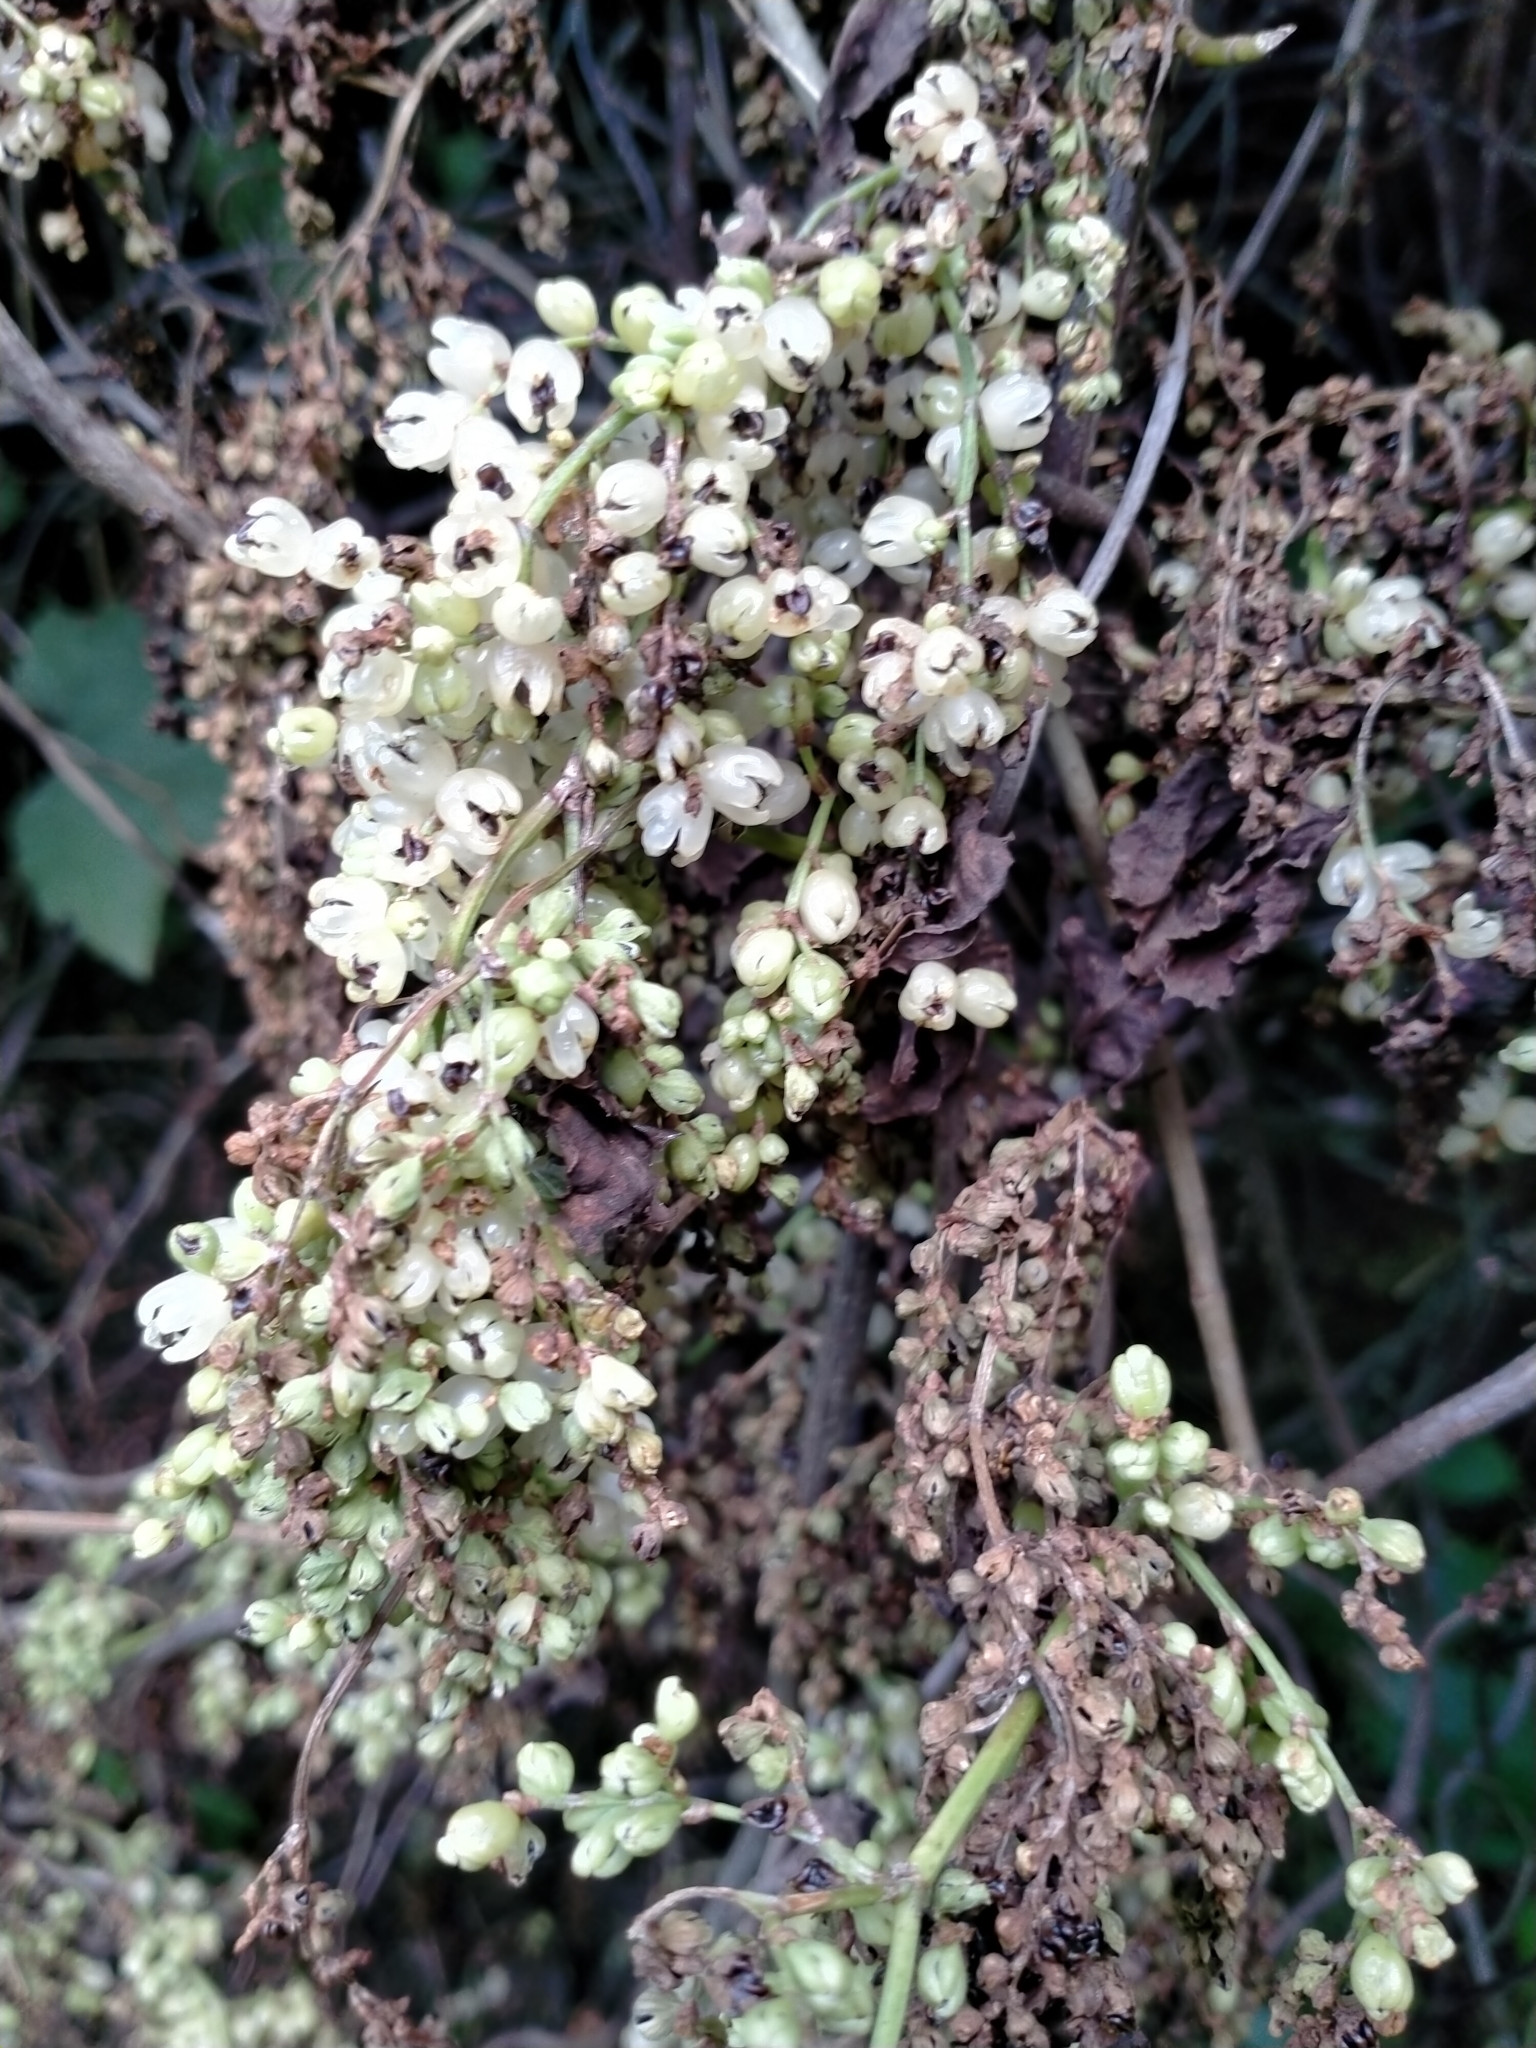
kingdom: Plantae
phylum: Tracheophyta
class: Magnoliopsida
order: Caryophyllales
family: Polygonaceae
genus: Muehlenbeckia
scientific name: Muehlenbeckia australis
